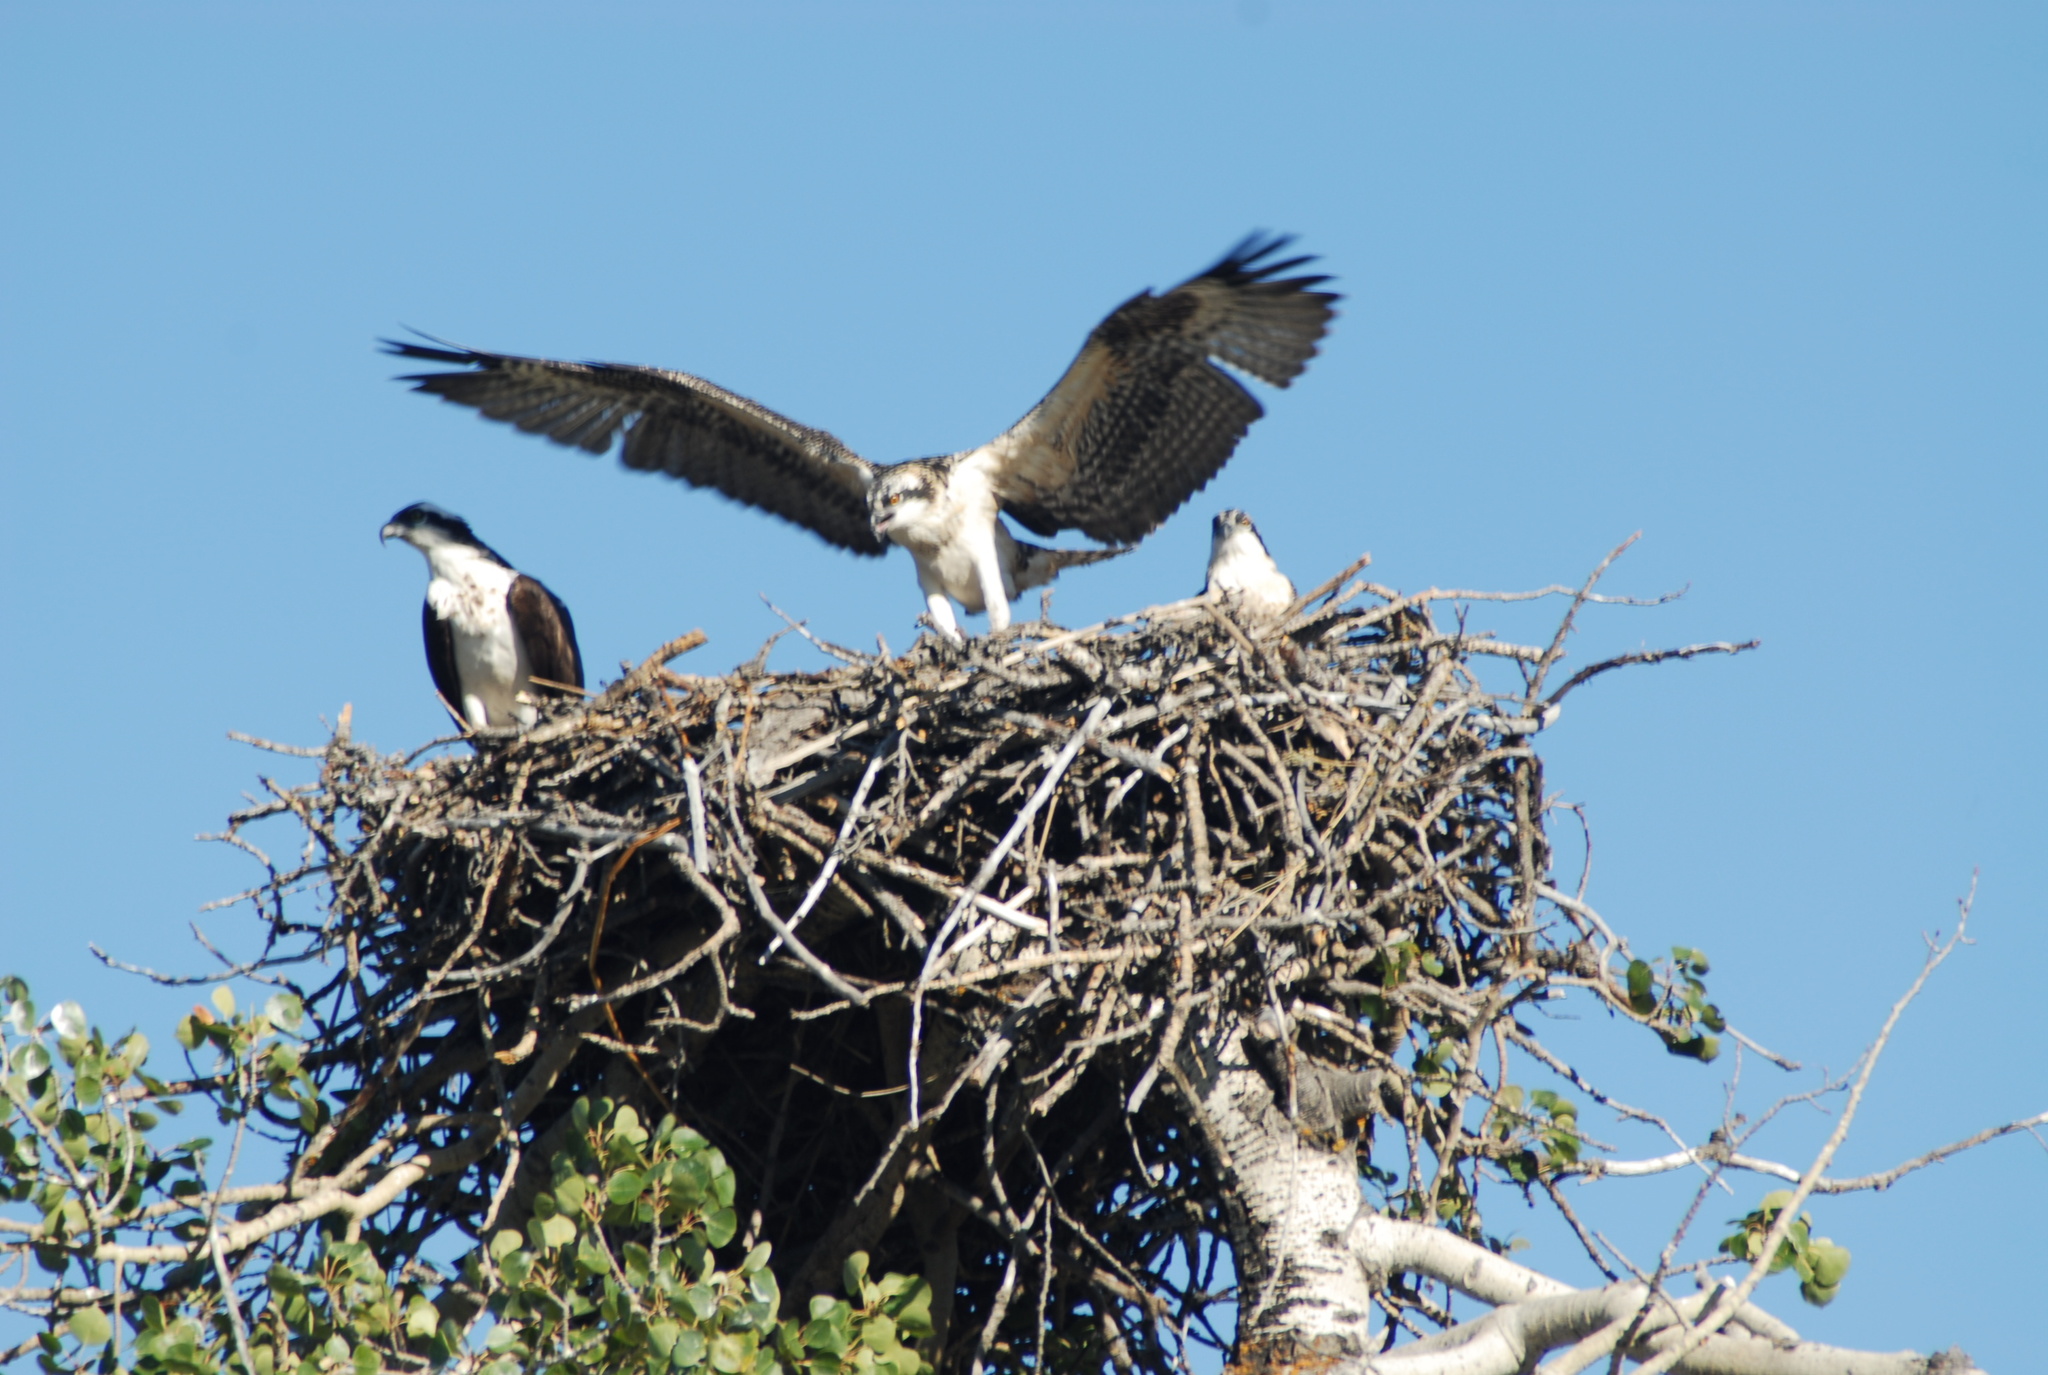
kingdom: Animalia
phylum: Chordata
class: Aves
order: Accipitriformes
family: Pandionidae
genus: Pandion
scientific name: Pandion haliaetus
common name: Osprey
